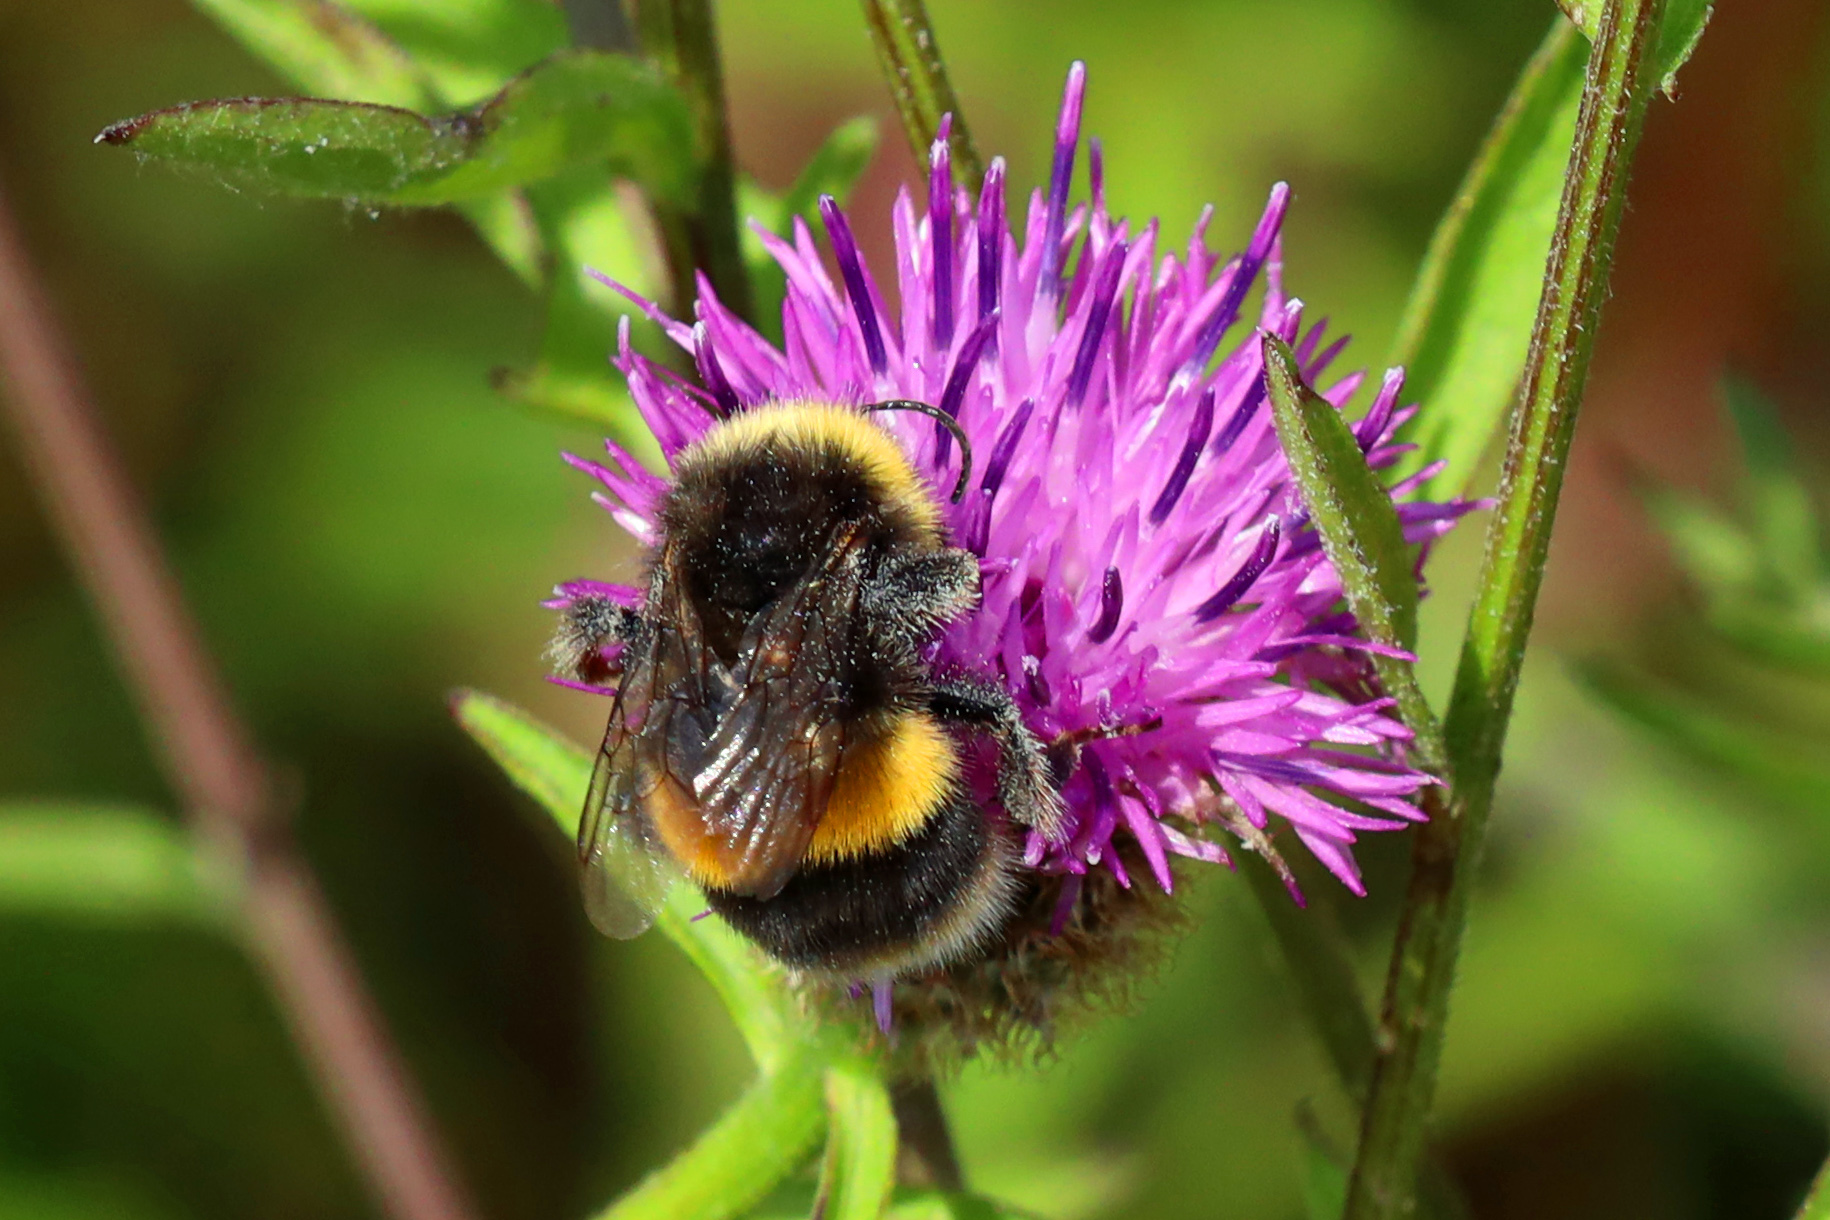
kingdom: Animalia
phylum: Arthropoda
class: Insecta
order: Hymenoptera
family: Apidae
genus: Bombus
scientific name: Bombus terrestris
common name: Buff-tailed bumblebee
